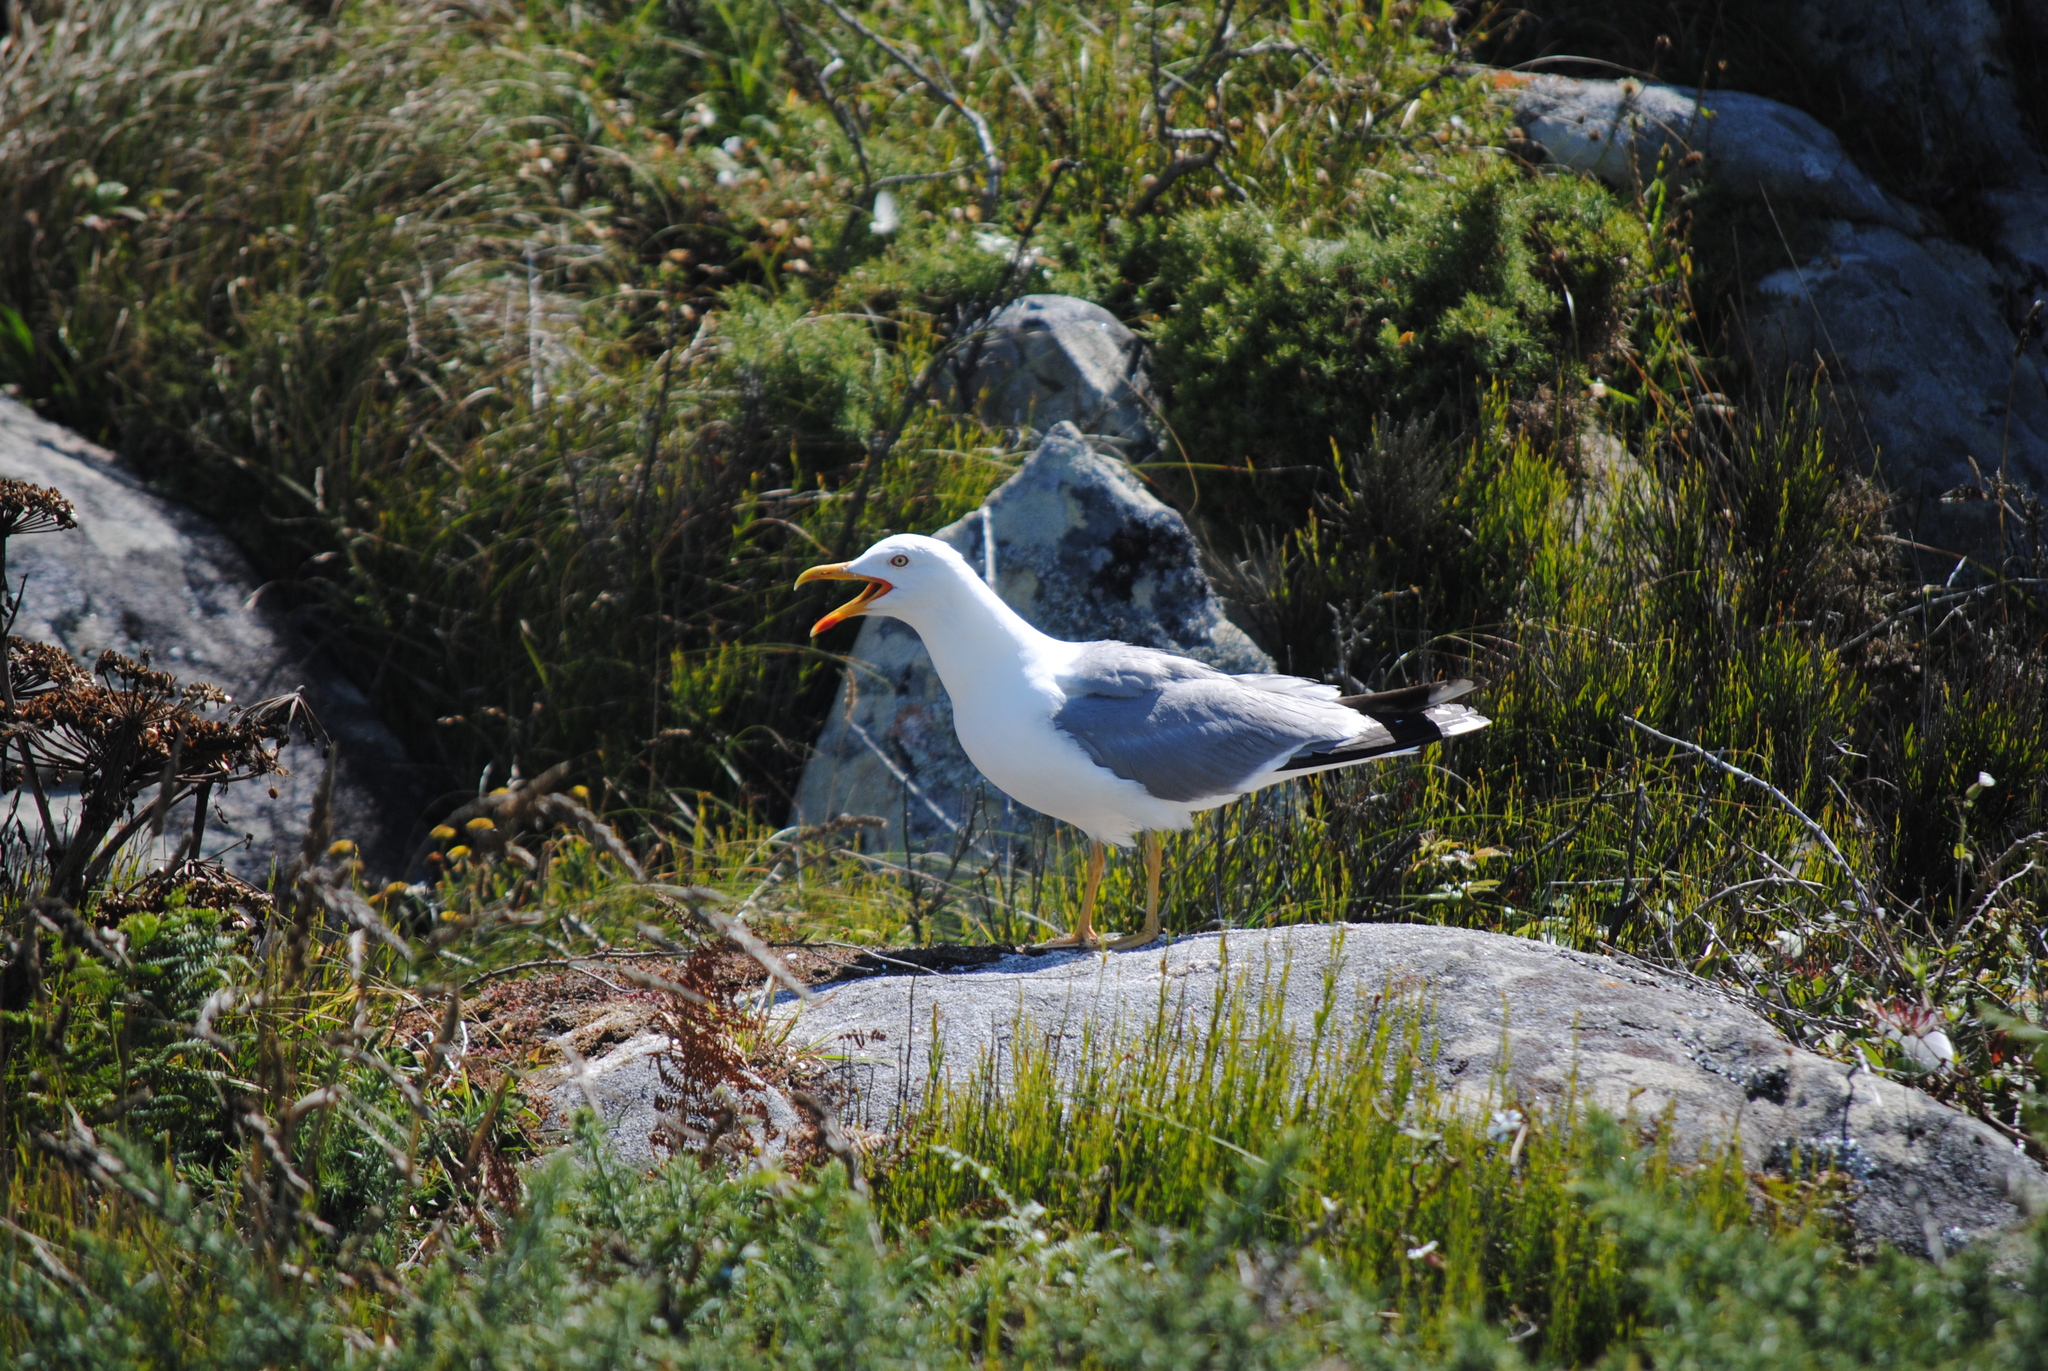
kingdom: Animalia
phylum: Chordata
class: Aves
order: Charadriiformes
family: Laridae
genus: Larus
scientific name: Larus michahellis
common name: Yellow-legged gull
